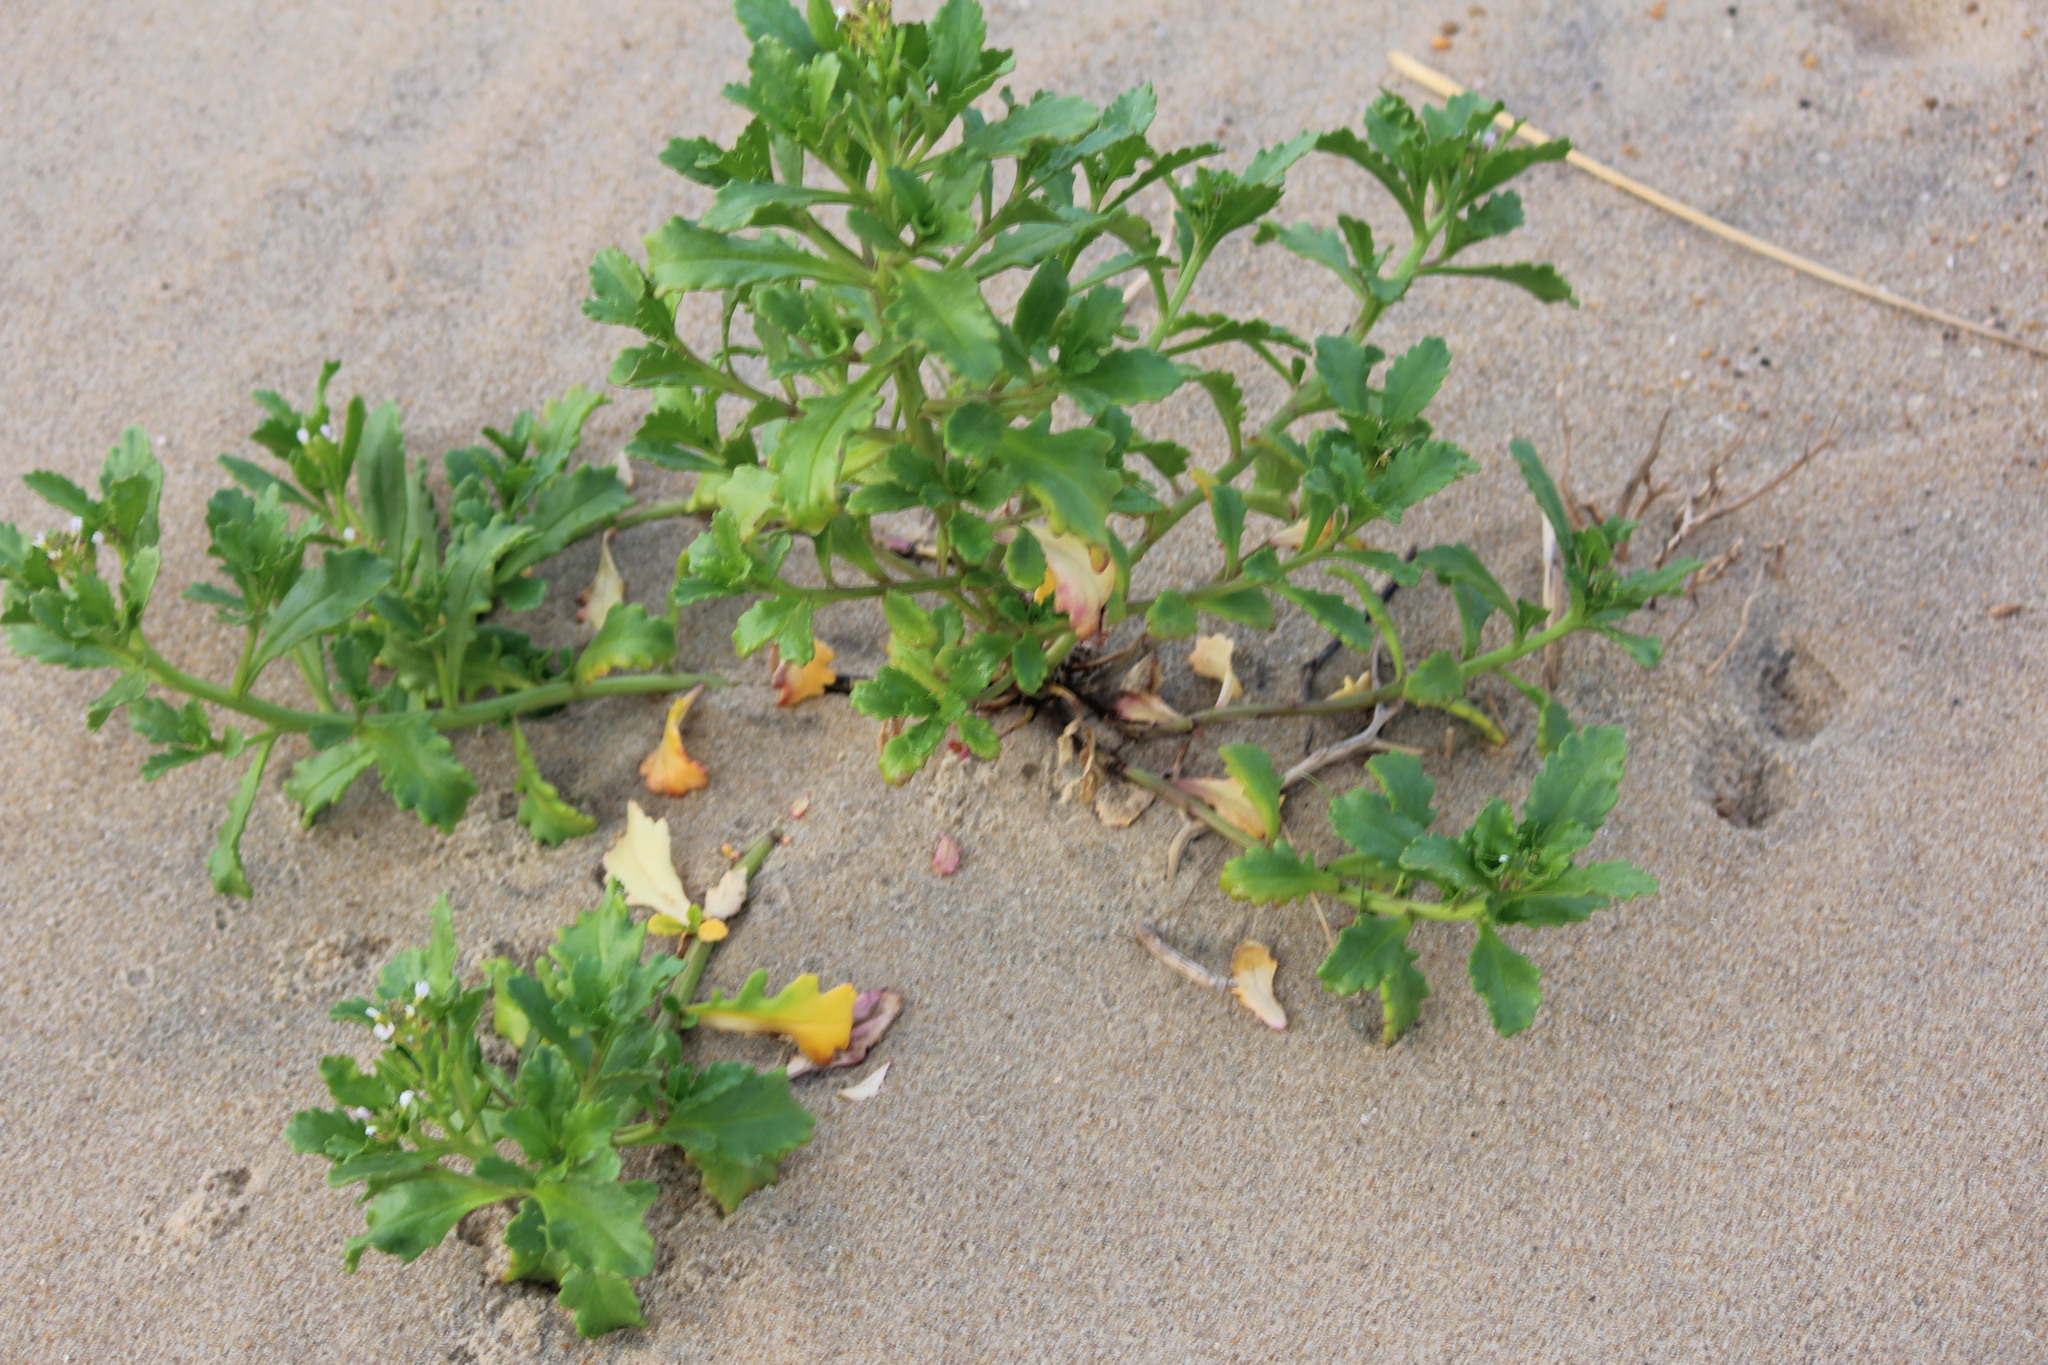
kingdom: Plantae
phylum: Tracheophyta
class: Magnoliopsida
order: Brassicales
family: Brassicaceae
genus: Cakile
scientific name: Cakile edentula
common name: American sea rocket
